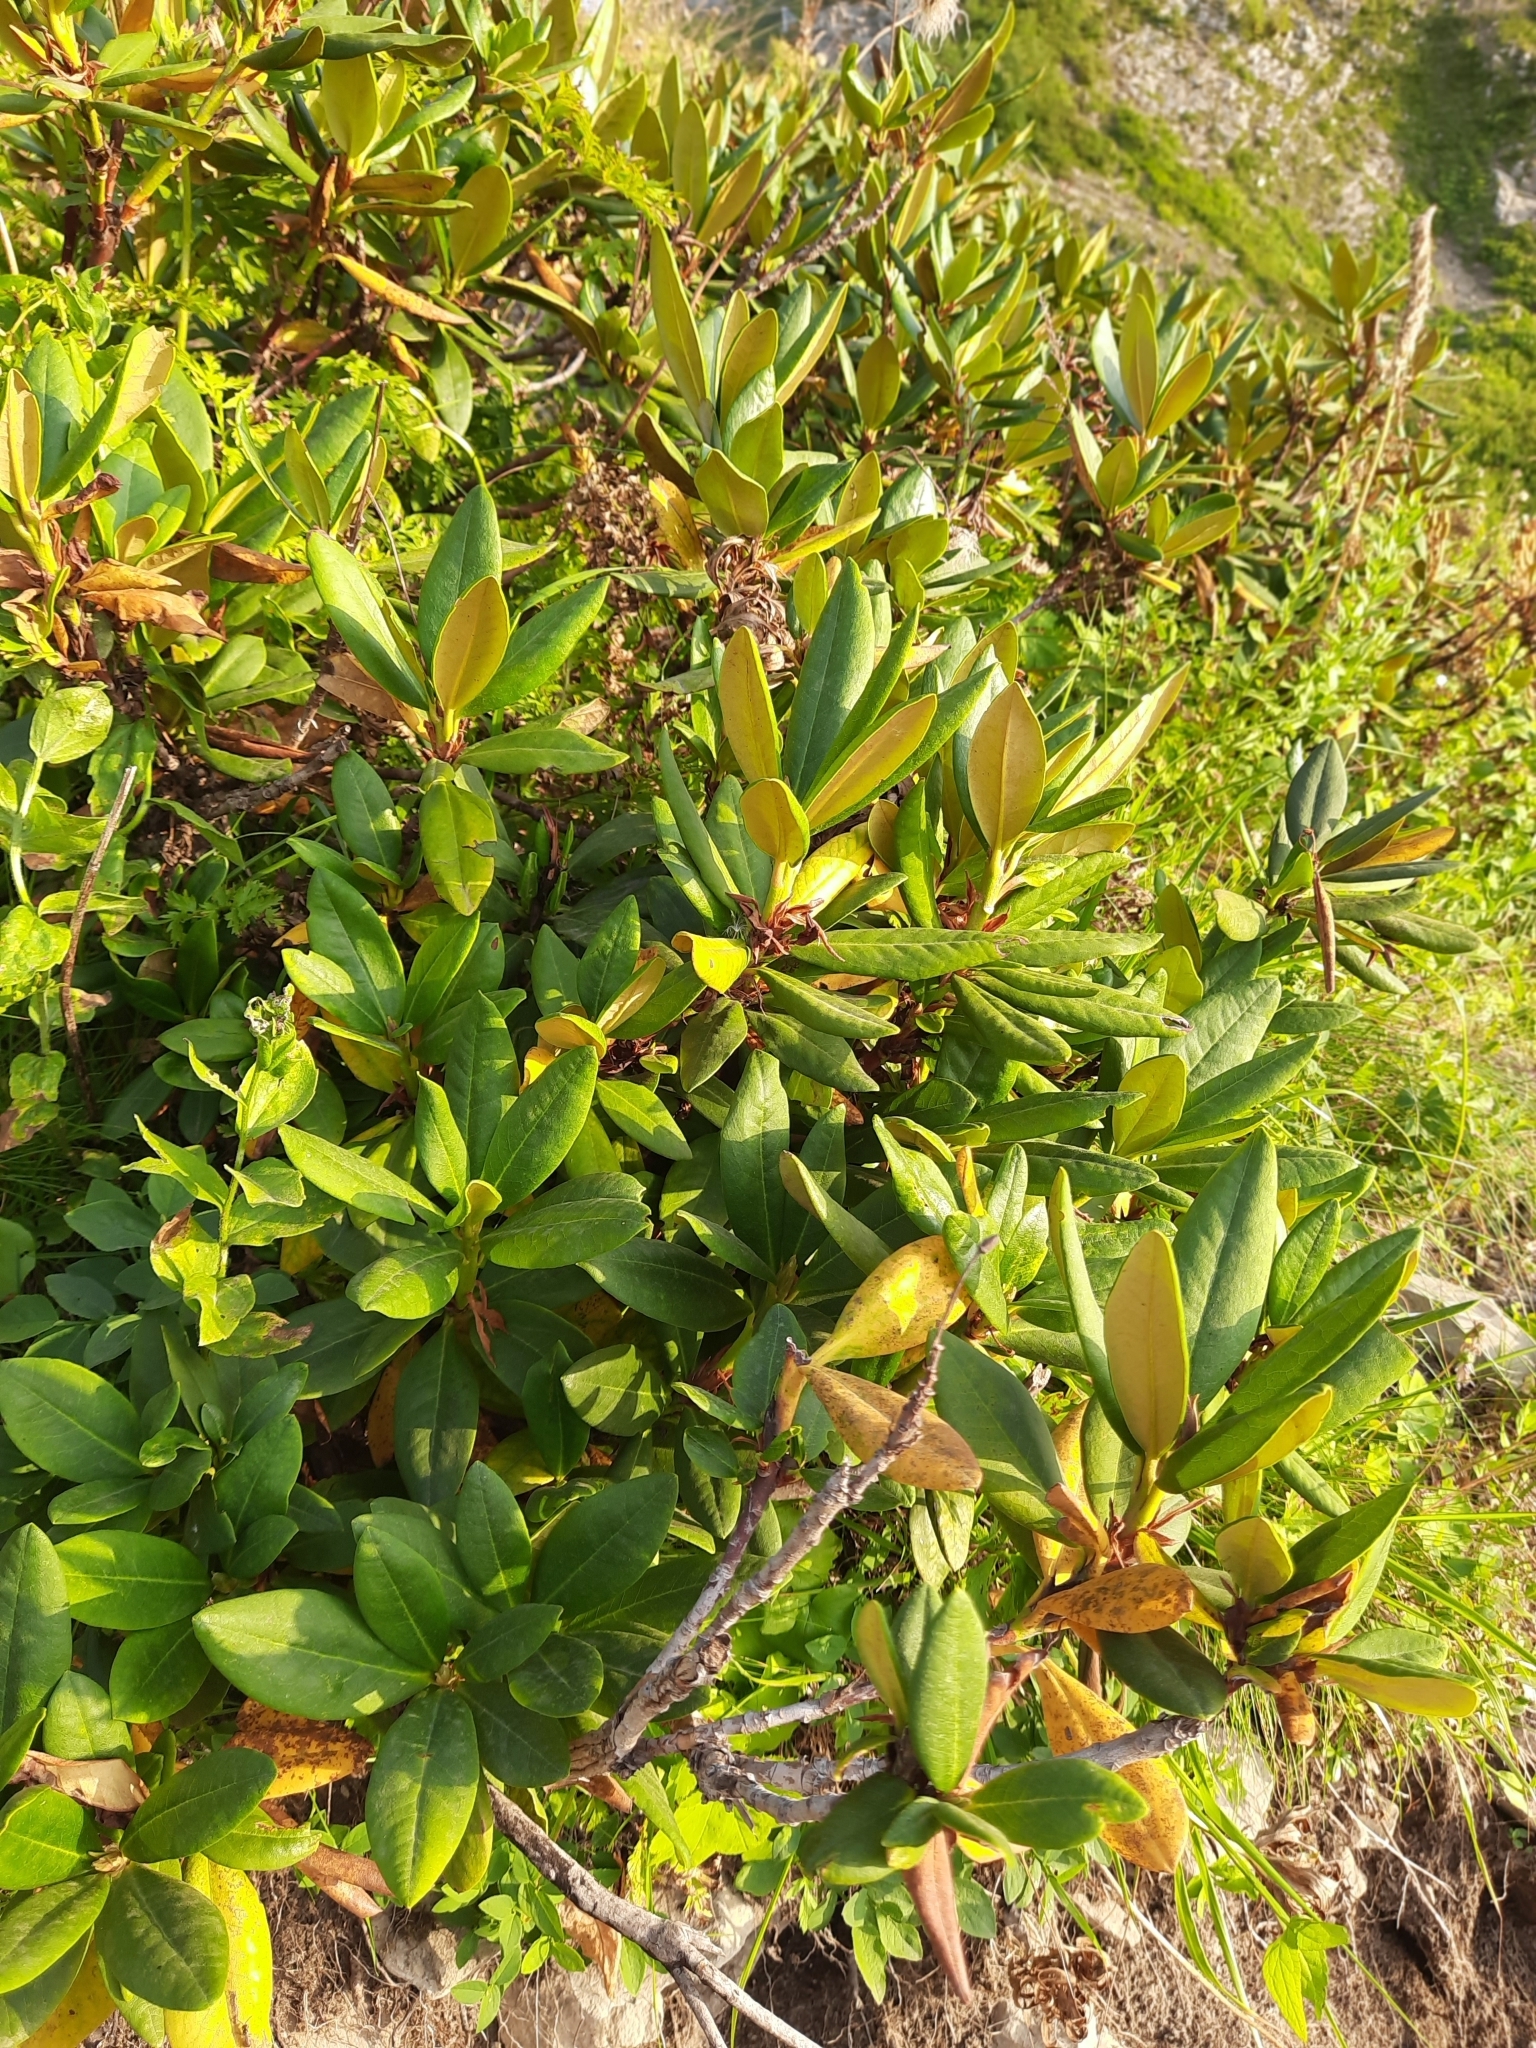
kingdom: Plantae
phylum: Tracheophyta
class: Magnoliopsida
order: Ericales
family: Ericaceae
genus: Rhododendron
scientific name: Rhododendron caucasicum
